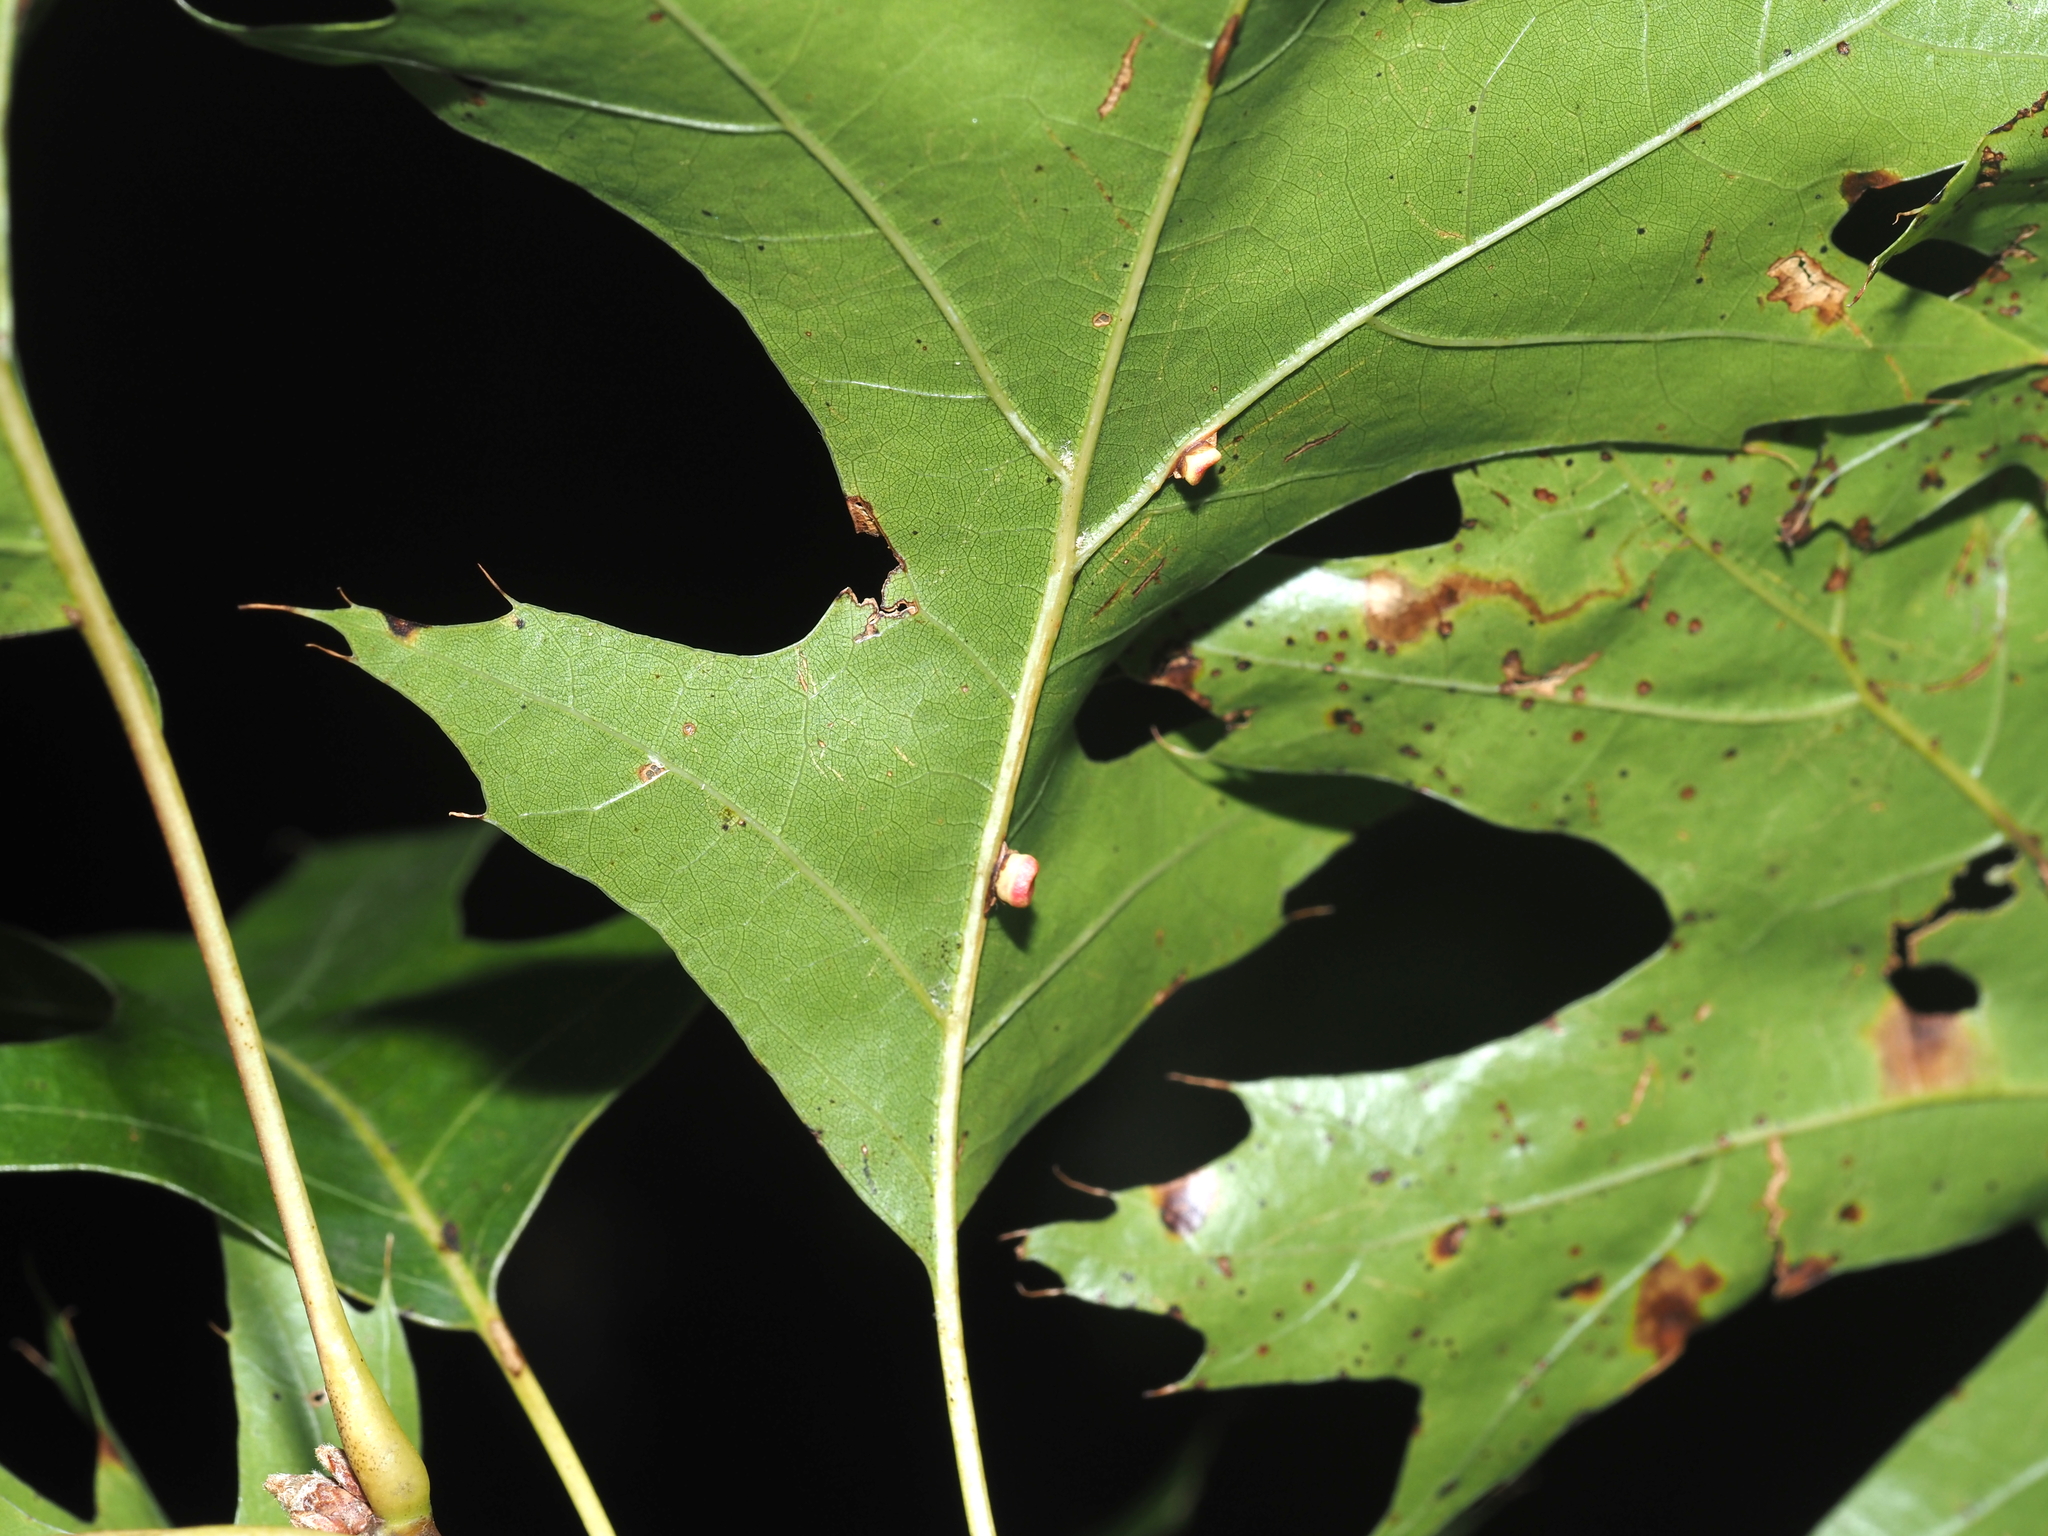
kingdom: Animalia
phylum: Arthropoda
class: Insecta
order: Hymenoptera
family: Cynipidae
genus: Kokkocynips
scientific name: Kokkocynips rileyi
